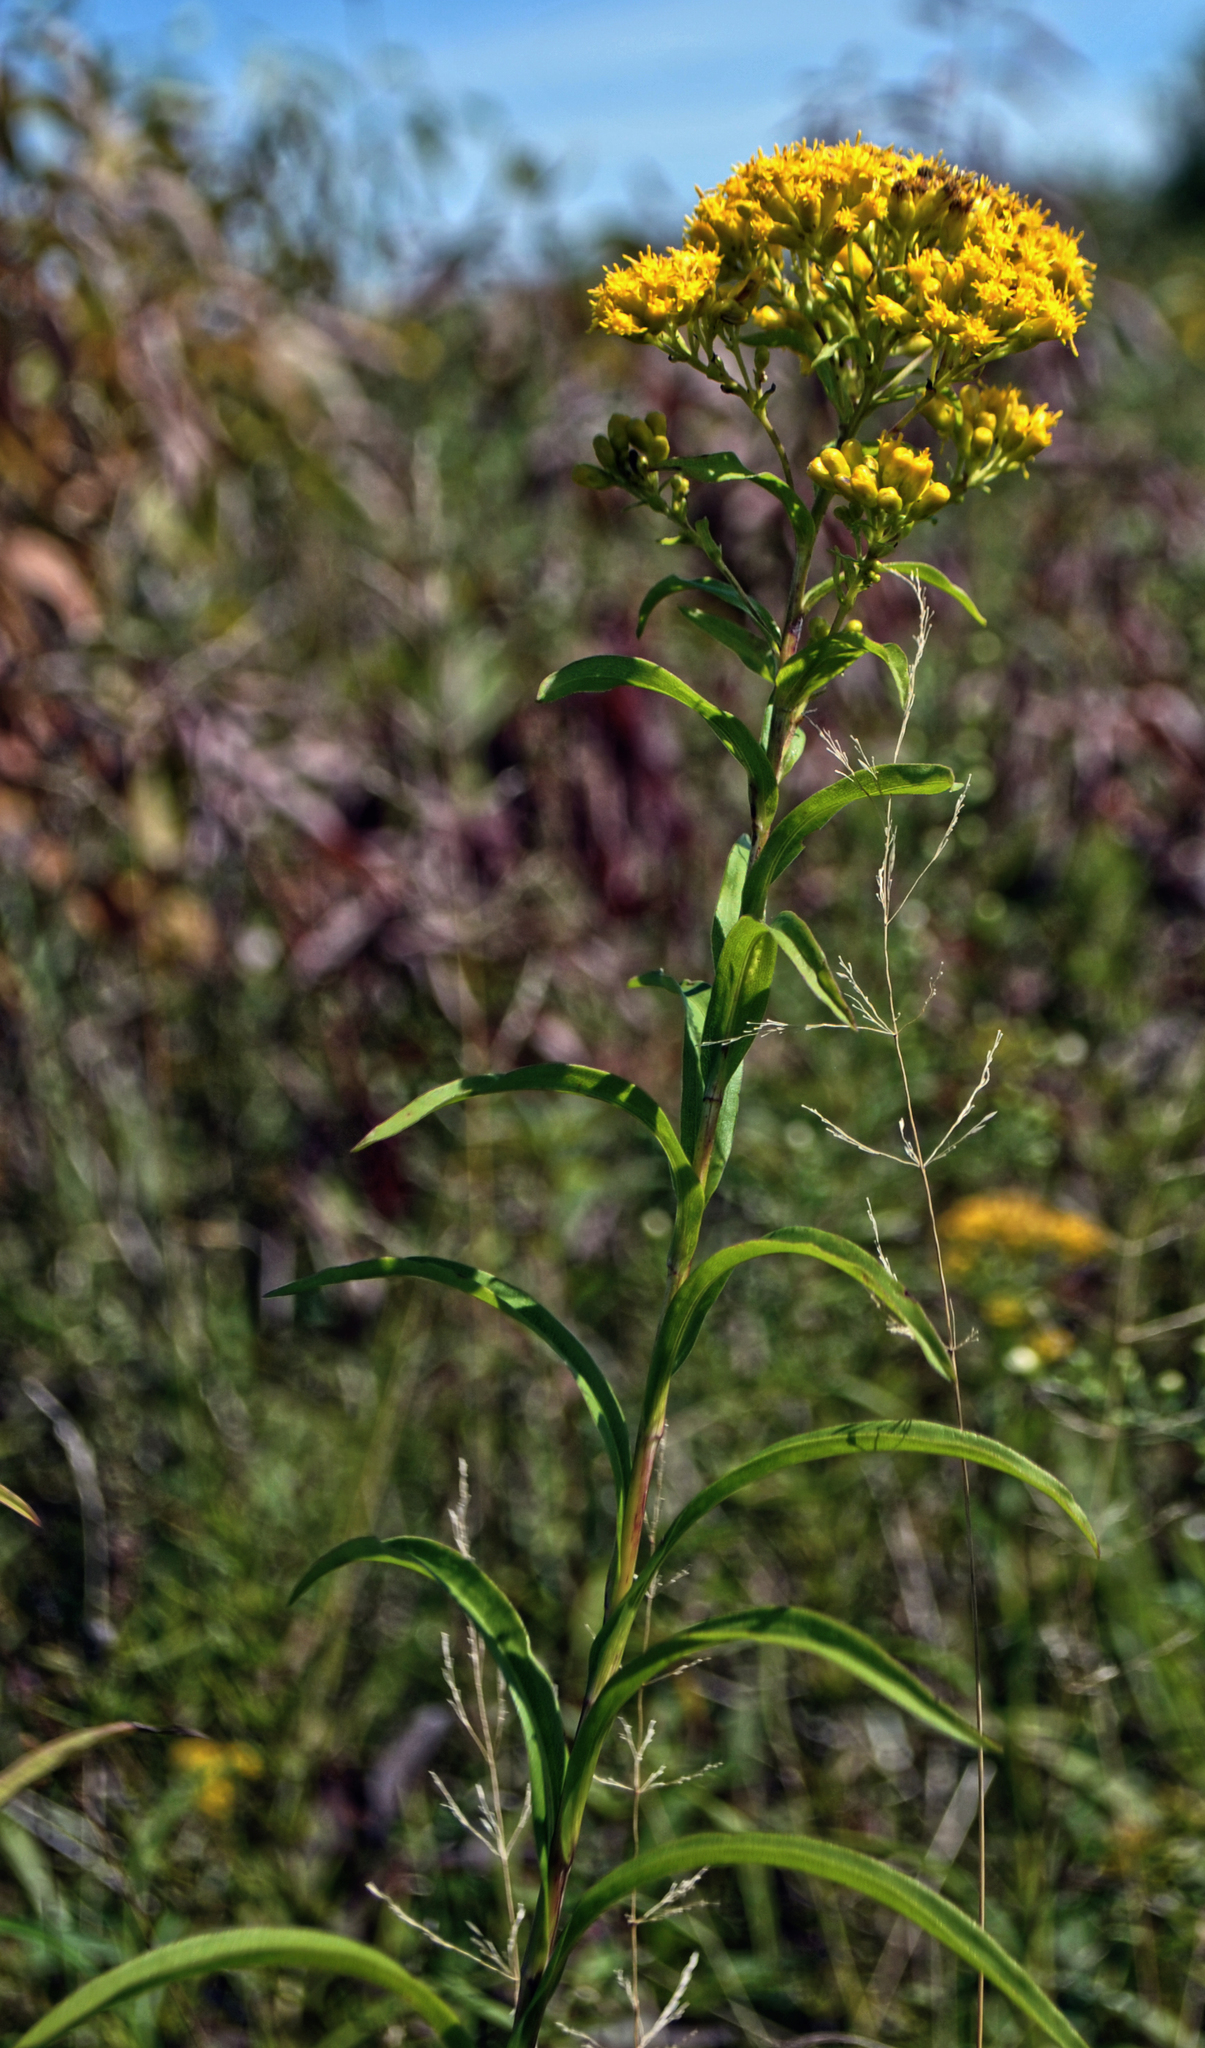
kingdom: Plantae
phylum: Tracheophyta
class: Magnoliopsida
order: Asterales
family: Asteraceae
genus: Solidago
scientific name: Solidago riddellii
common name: Riddell's goldenrod
